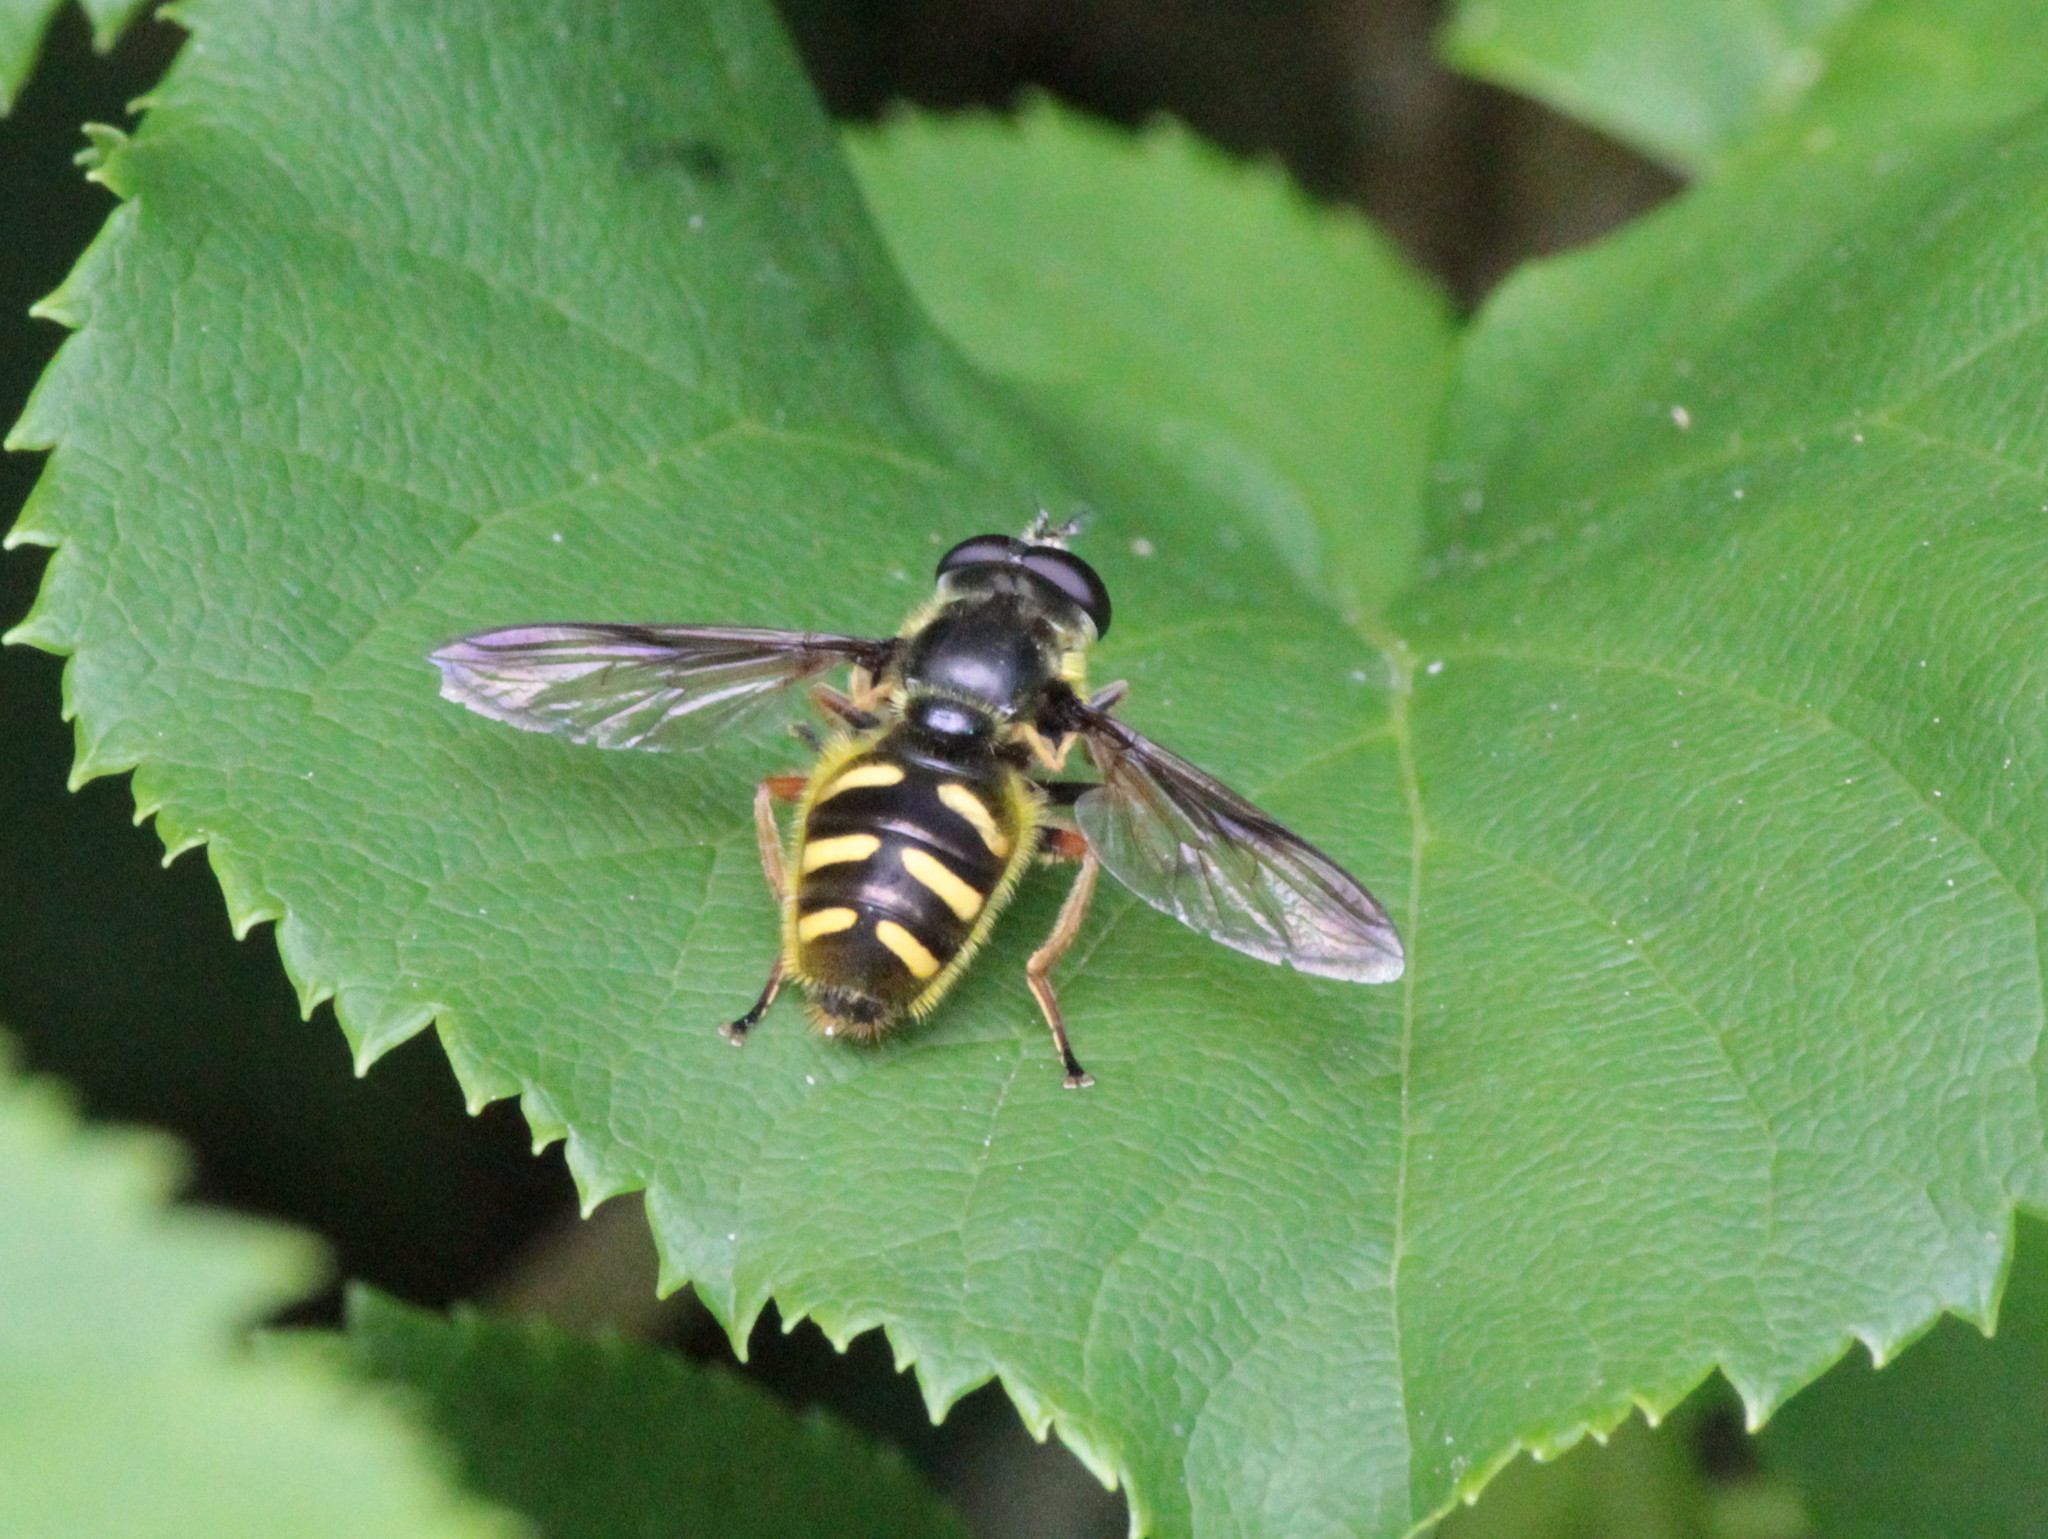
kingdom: Animalia
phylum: Arthropoda
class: Insecta
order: Diptera
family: Syrphidae
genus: Sericomyia
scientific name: Sericomyia chrysotoxoides
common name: Oblique-banded pond fly
